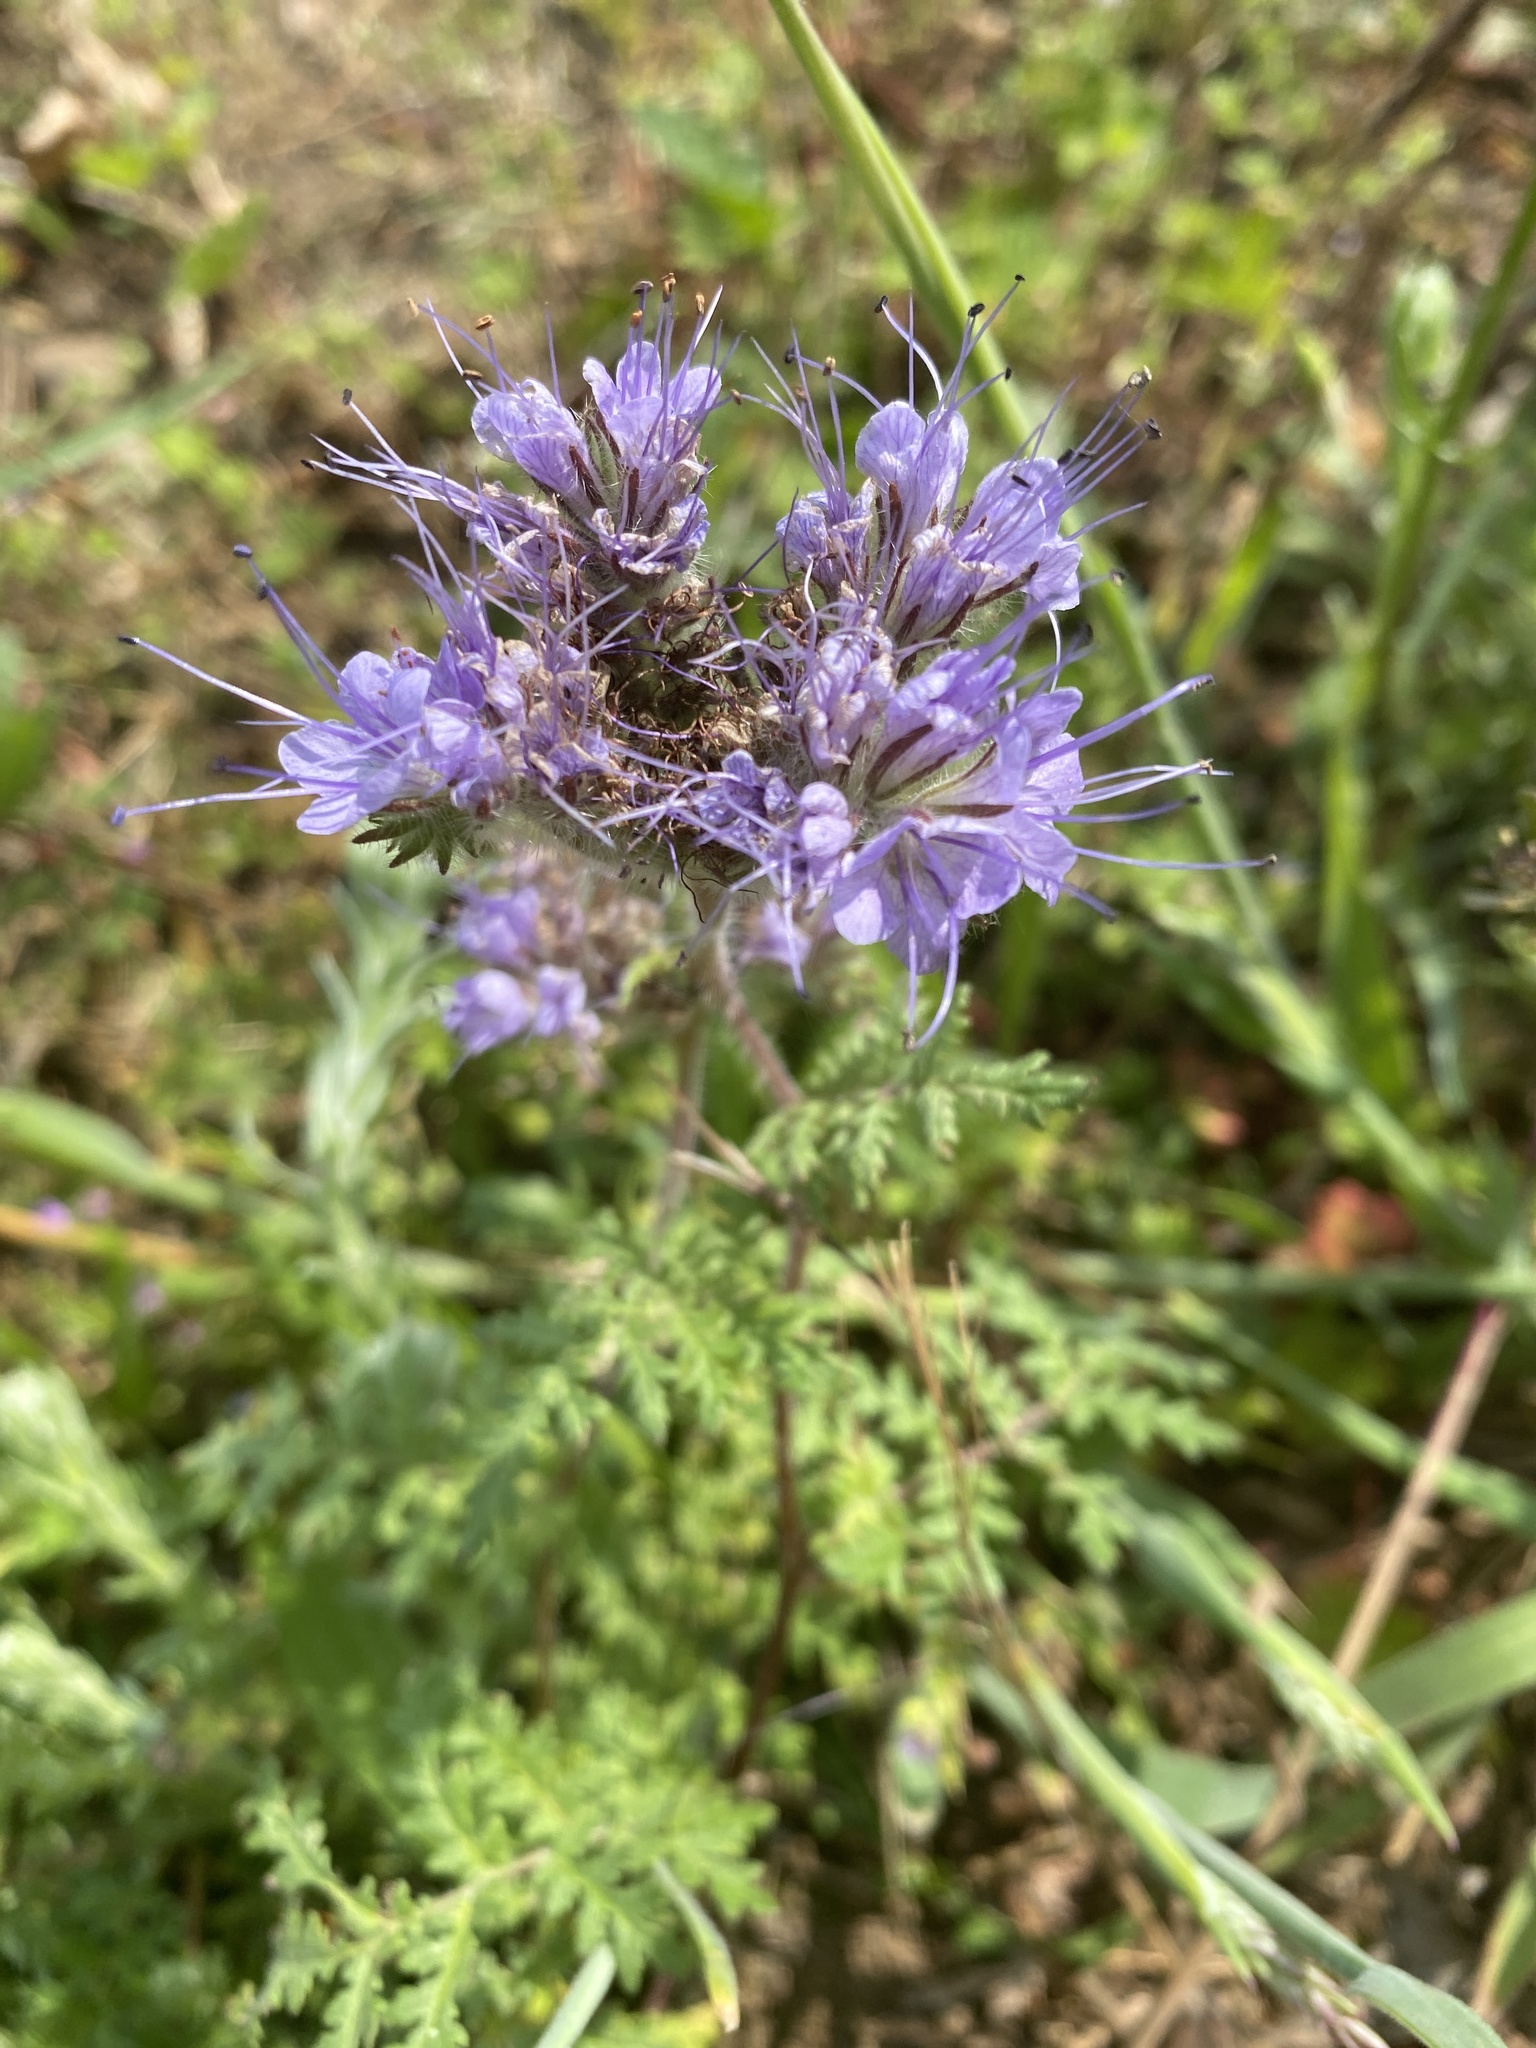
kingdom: Plantae
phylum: Tracheophyta
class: Magnoliopsida
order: Boraginales
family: Hydrophyllaceae
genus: Phacelia
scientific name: Phacelia tanacetifolia
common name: Phacelia
